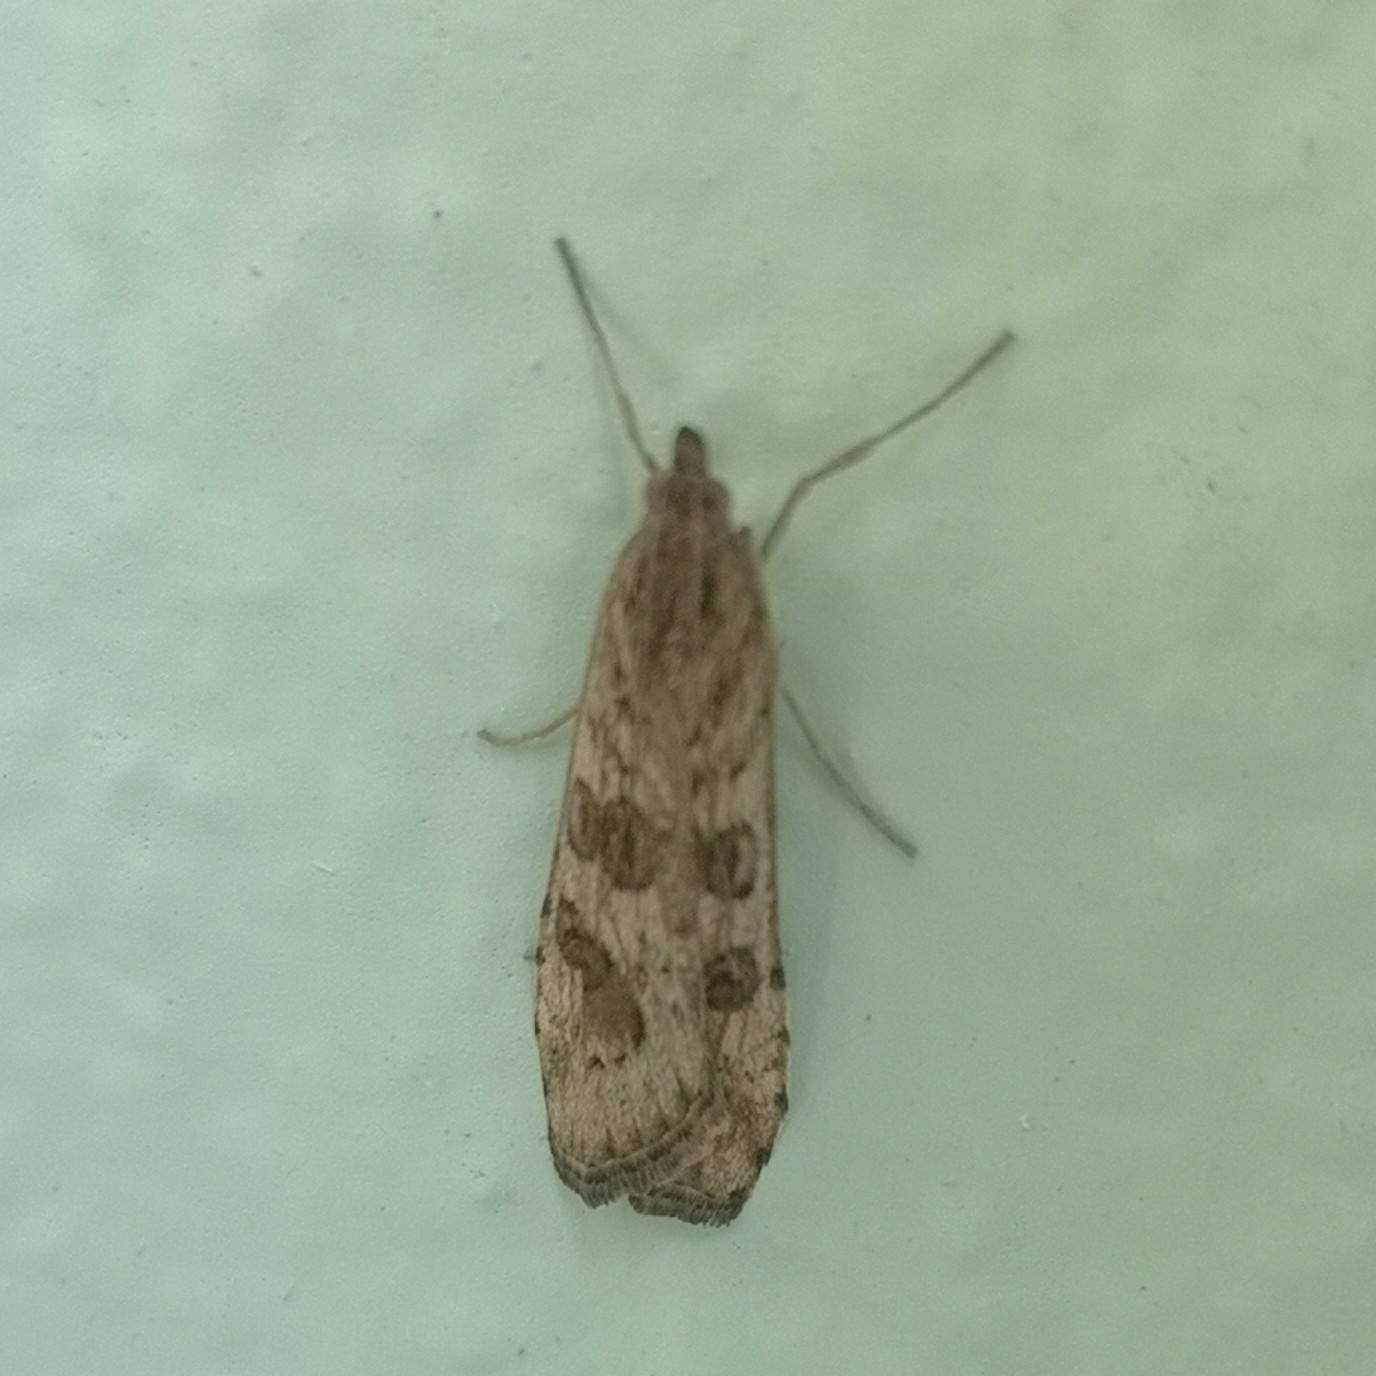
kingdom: Animalia
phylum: Arthropoda
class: Insecta
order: Lepidoptera
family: Crambidae
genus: Nomophila
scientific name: Nomophila noctuella
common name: Rush veneer
